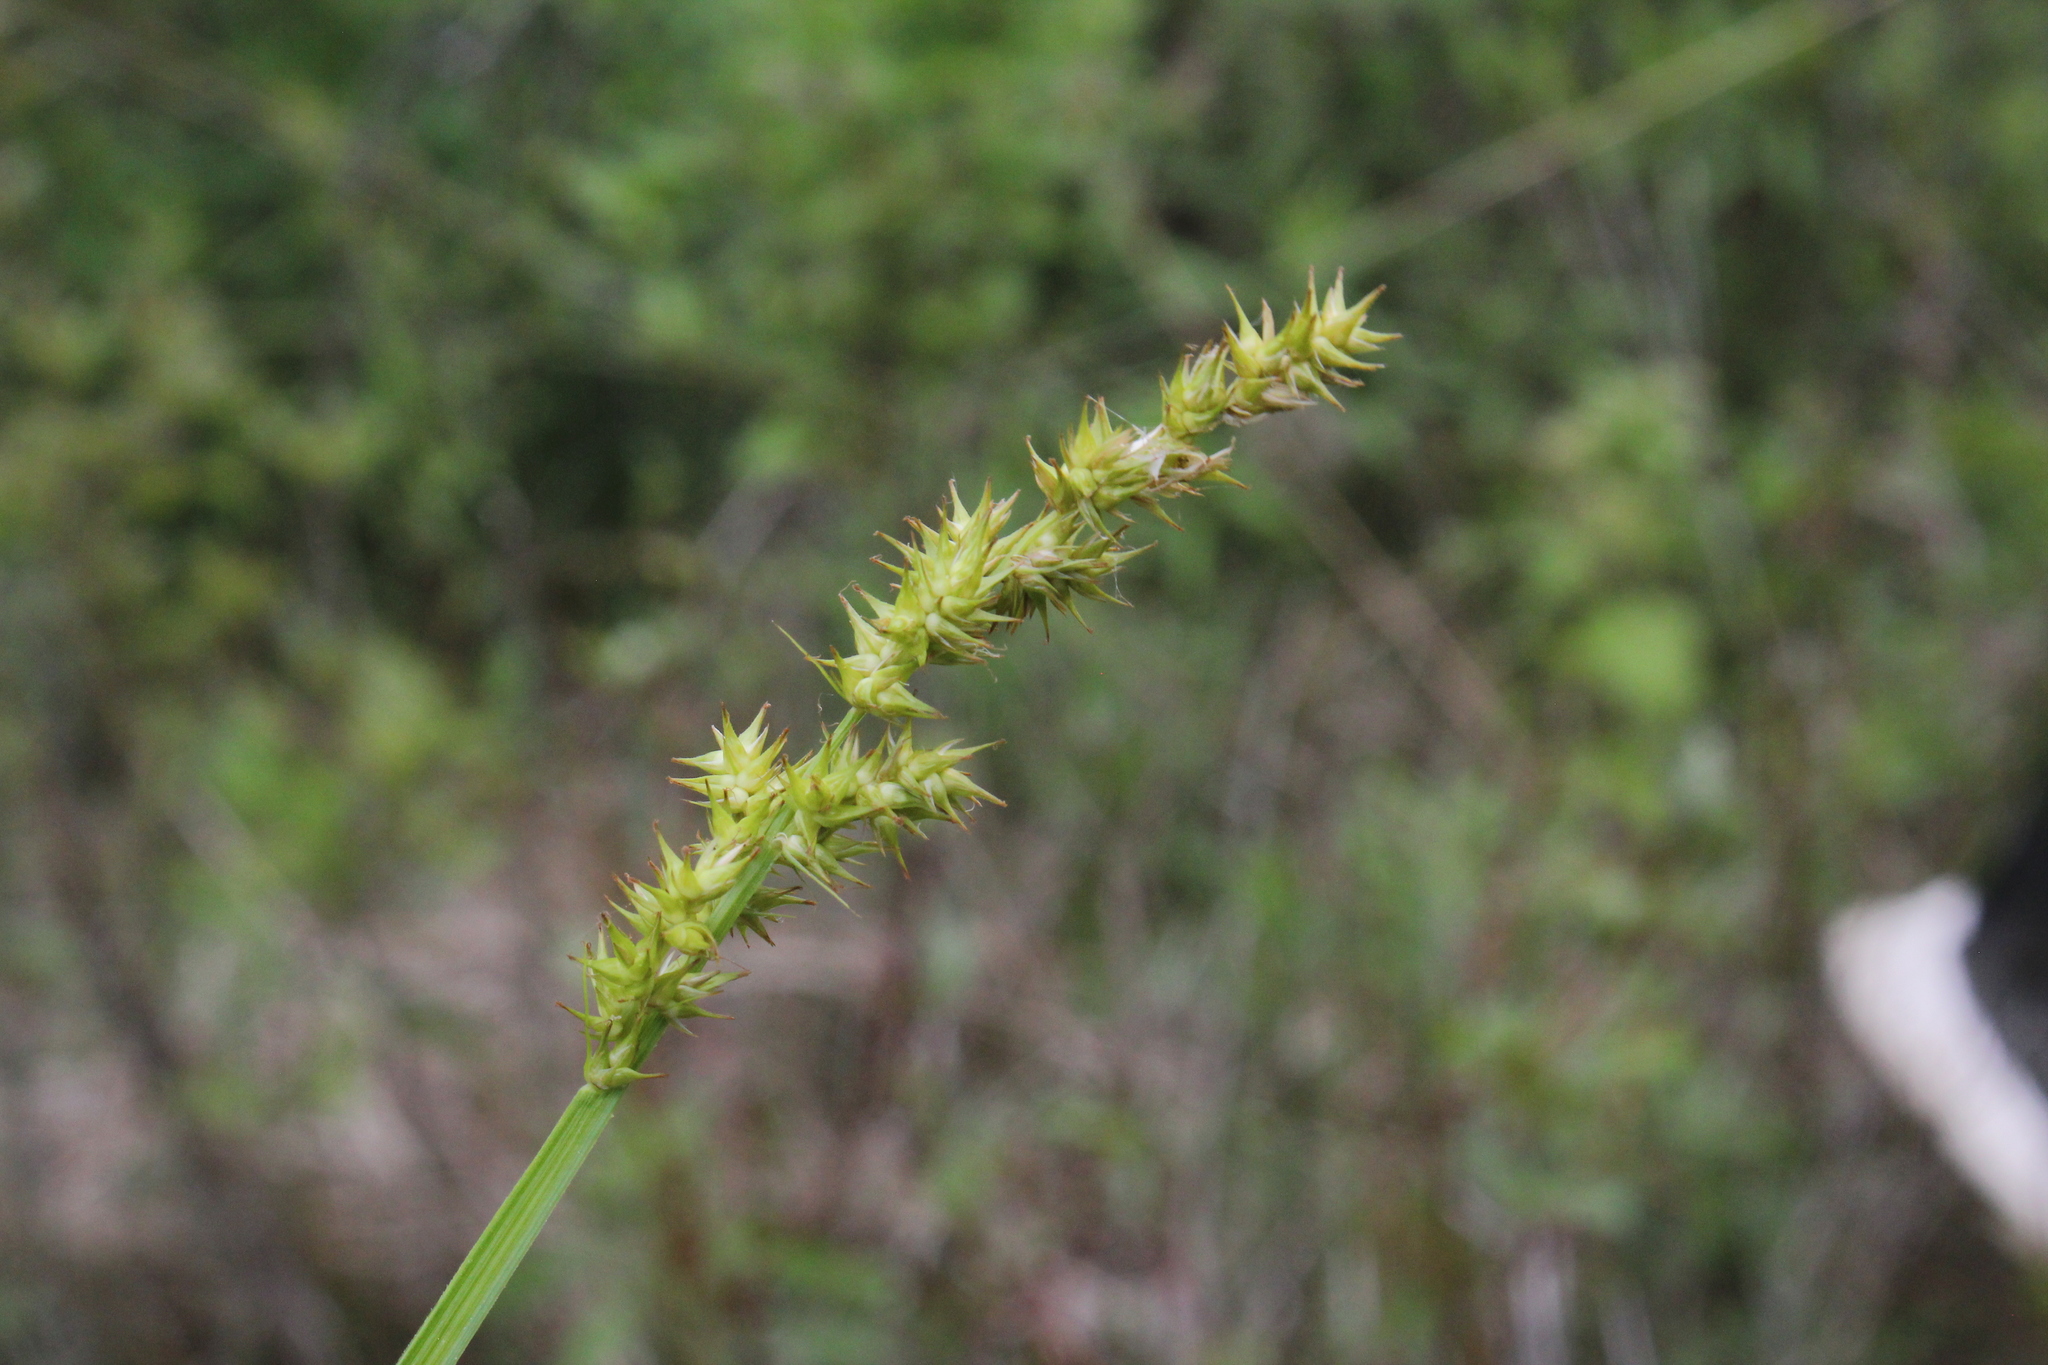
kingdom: Plantae
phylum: Tracheophyta
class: Liliopsida
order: Poales
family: Cyperaceae
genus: Carex
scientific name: Carex stipata
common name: Awl-fruited sedge
